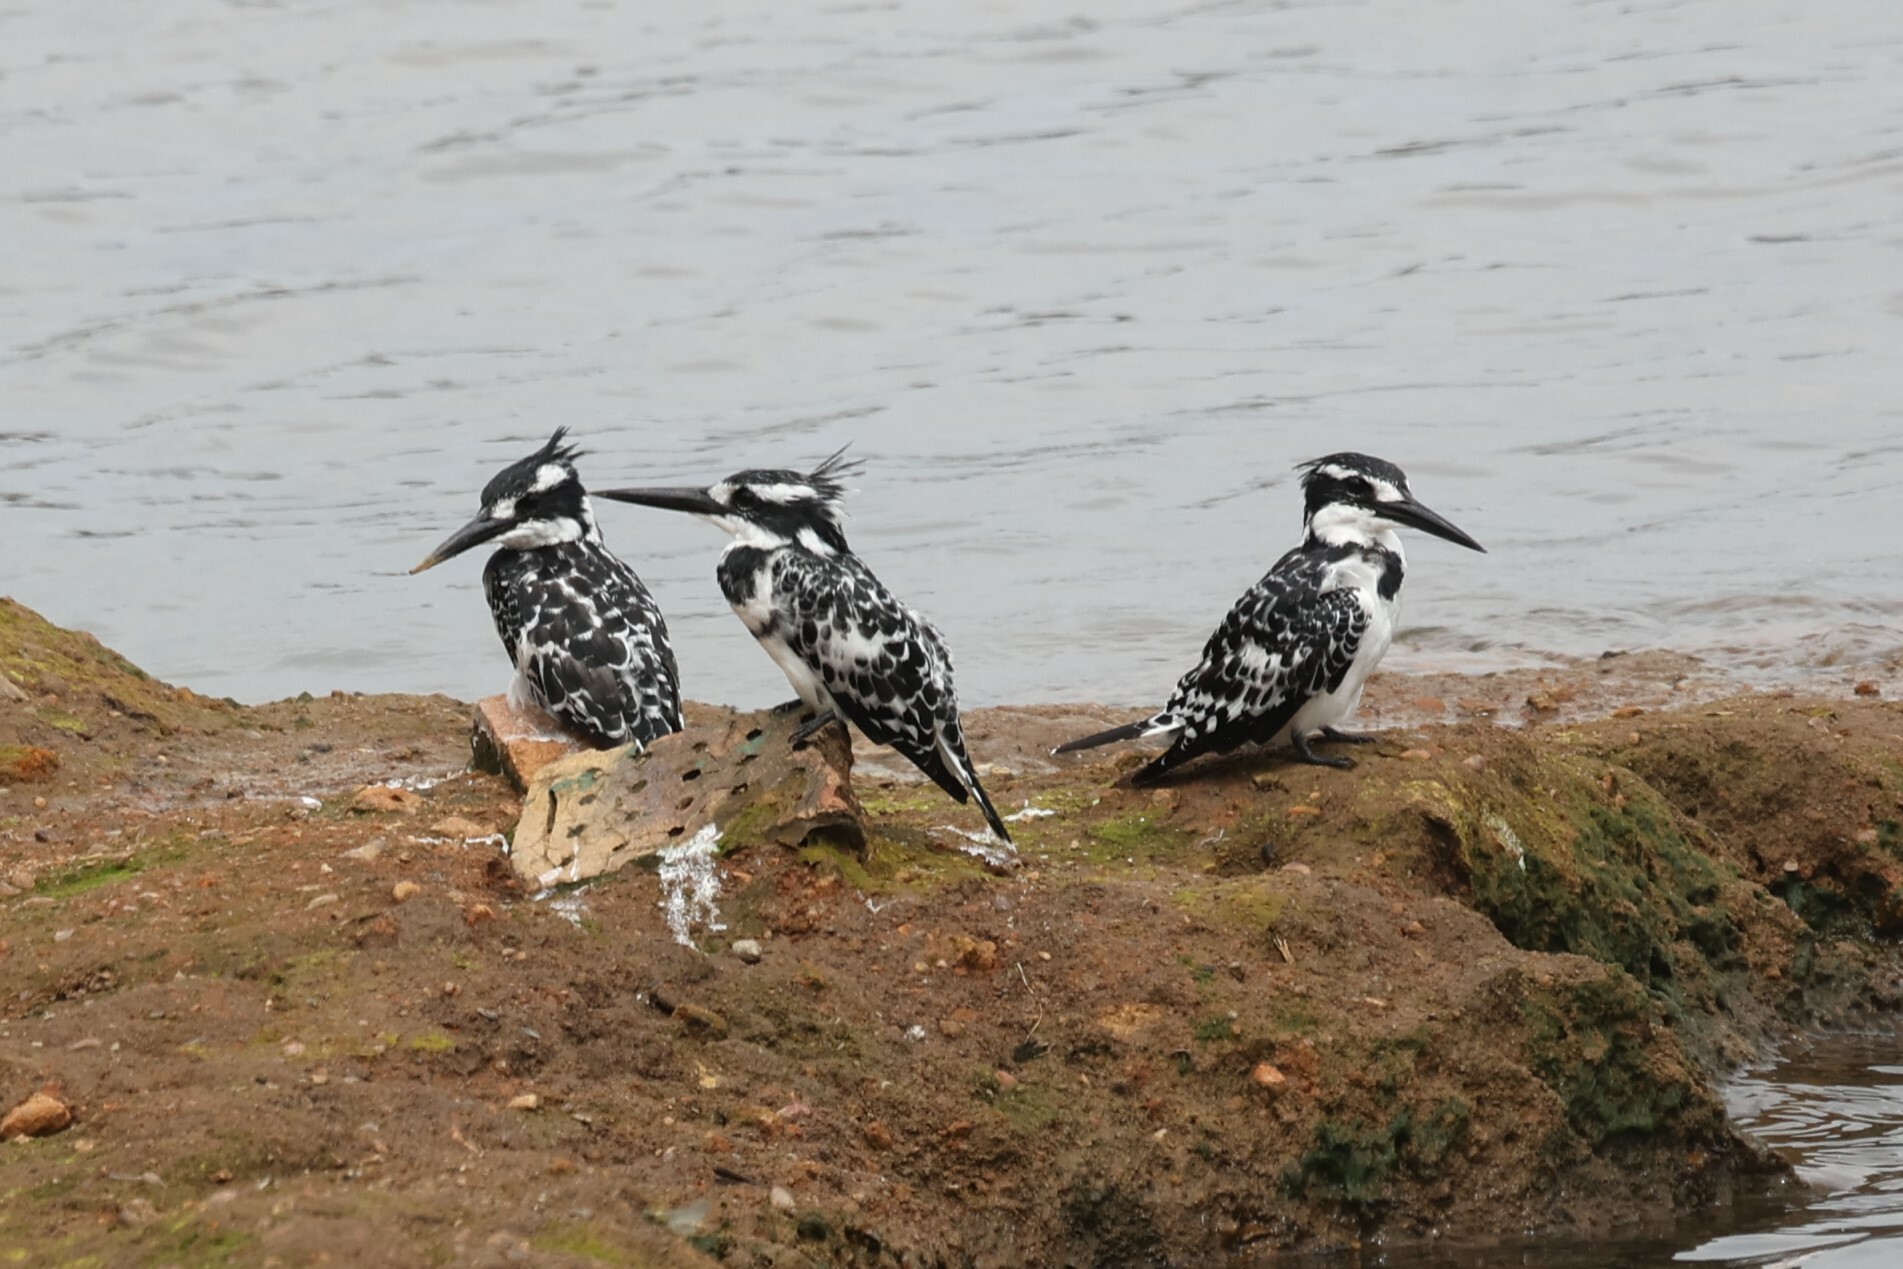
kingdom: Animalia
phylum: Chordata
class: Aves
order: Coraciiformes
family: Alcedinidae
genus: Ceryle
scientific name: Ceryle rudis
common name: Pied kingfisher
